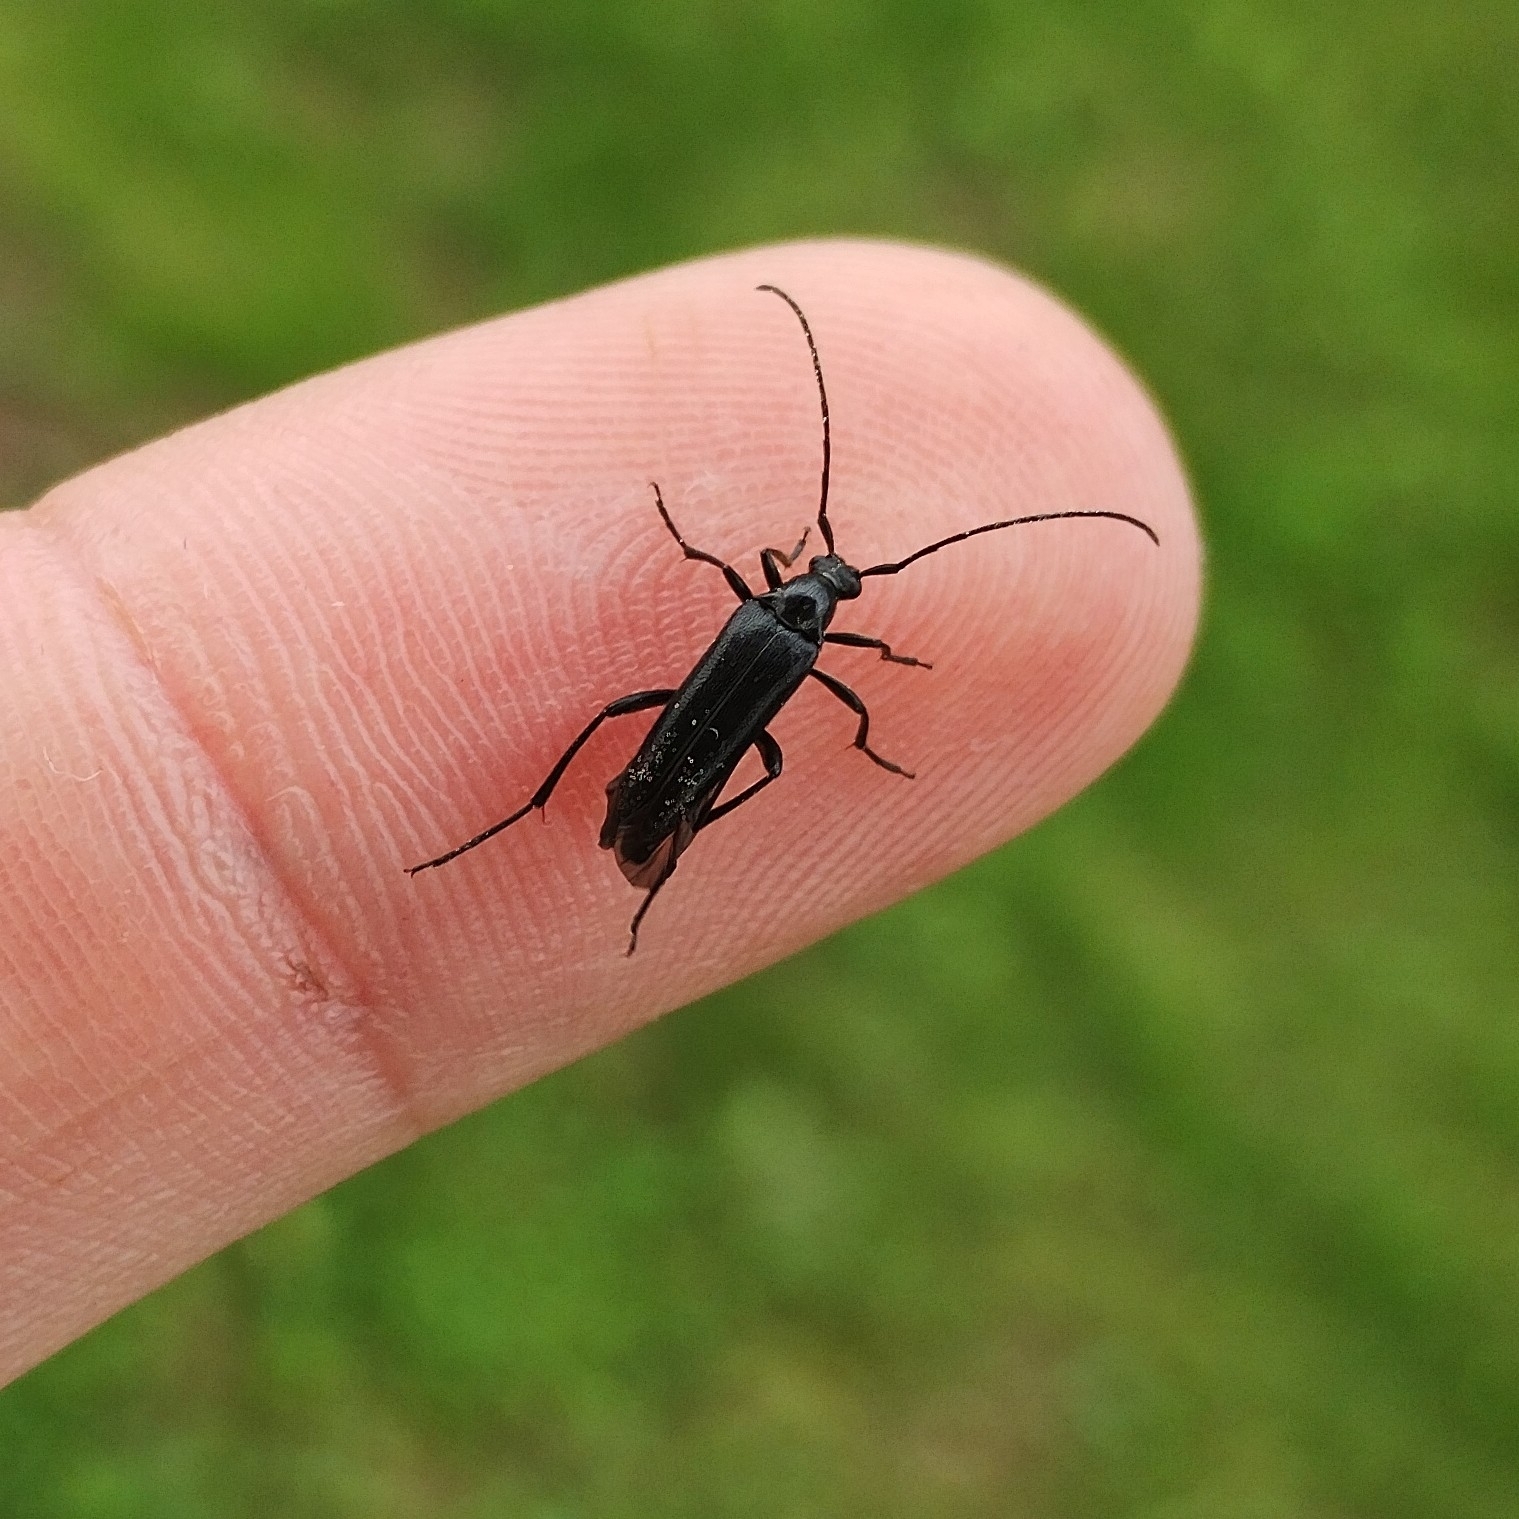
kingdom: Animalia
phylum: Arthropoda
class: Insecta
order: Coleoptera
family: Cerambycidae
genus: Stenurella
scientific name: Stenurella nigra
